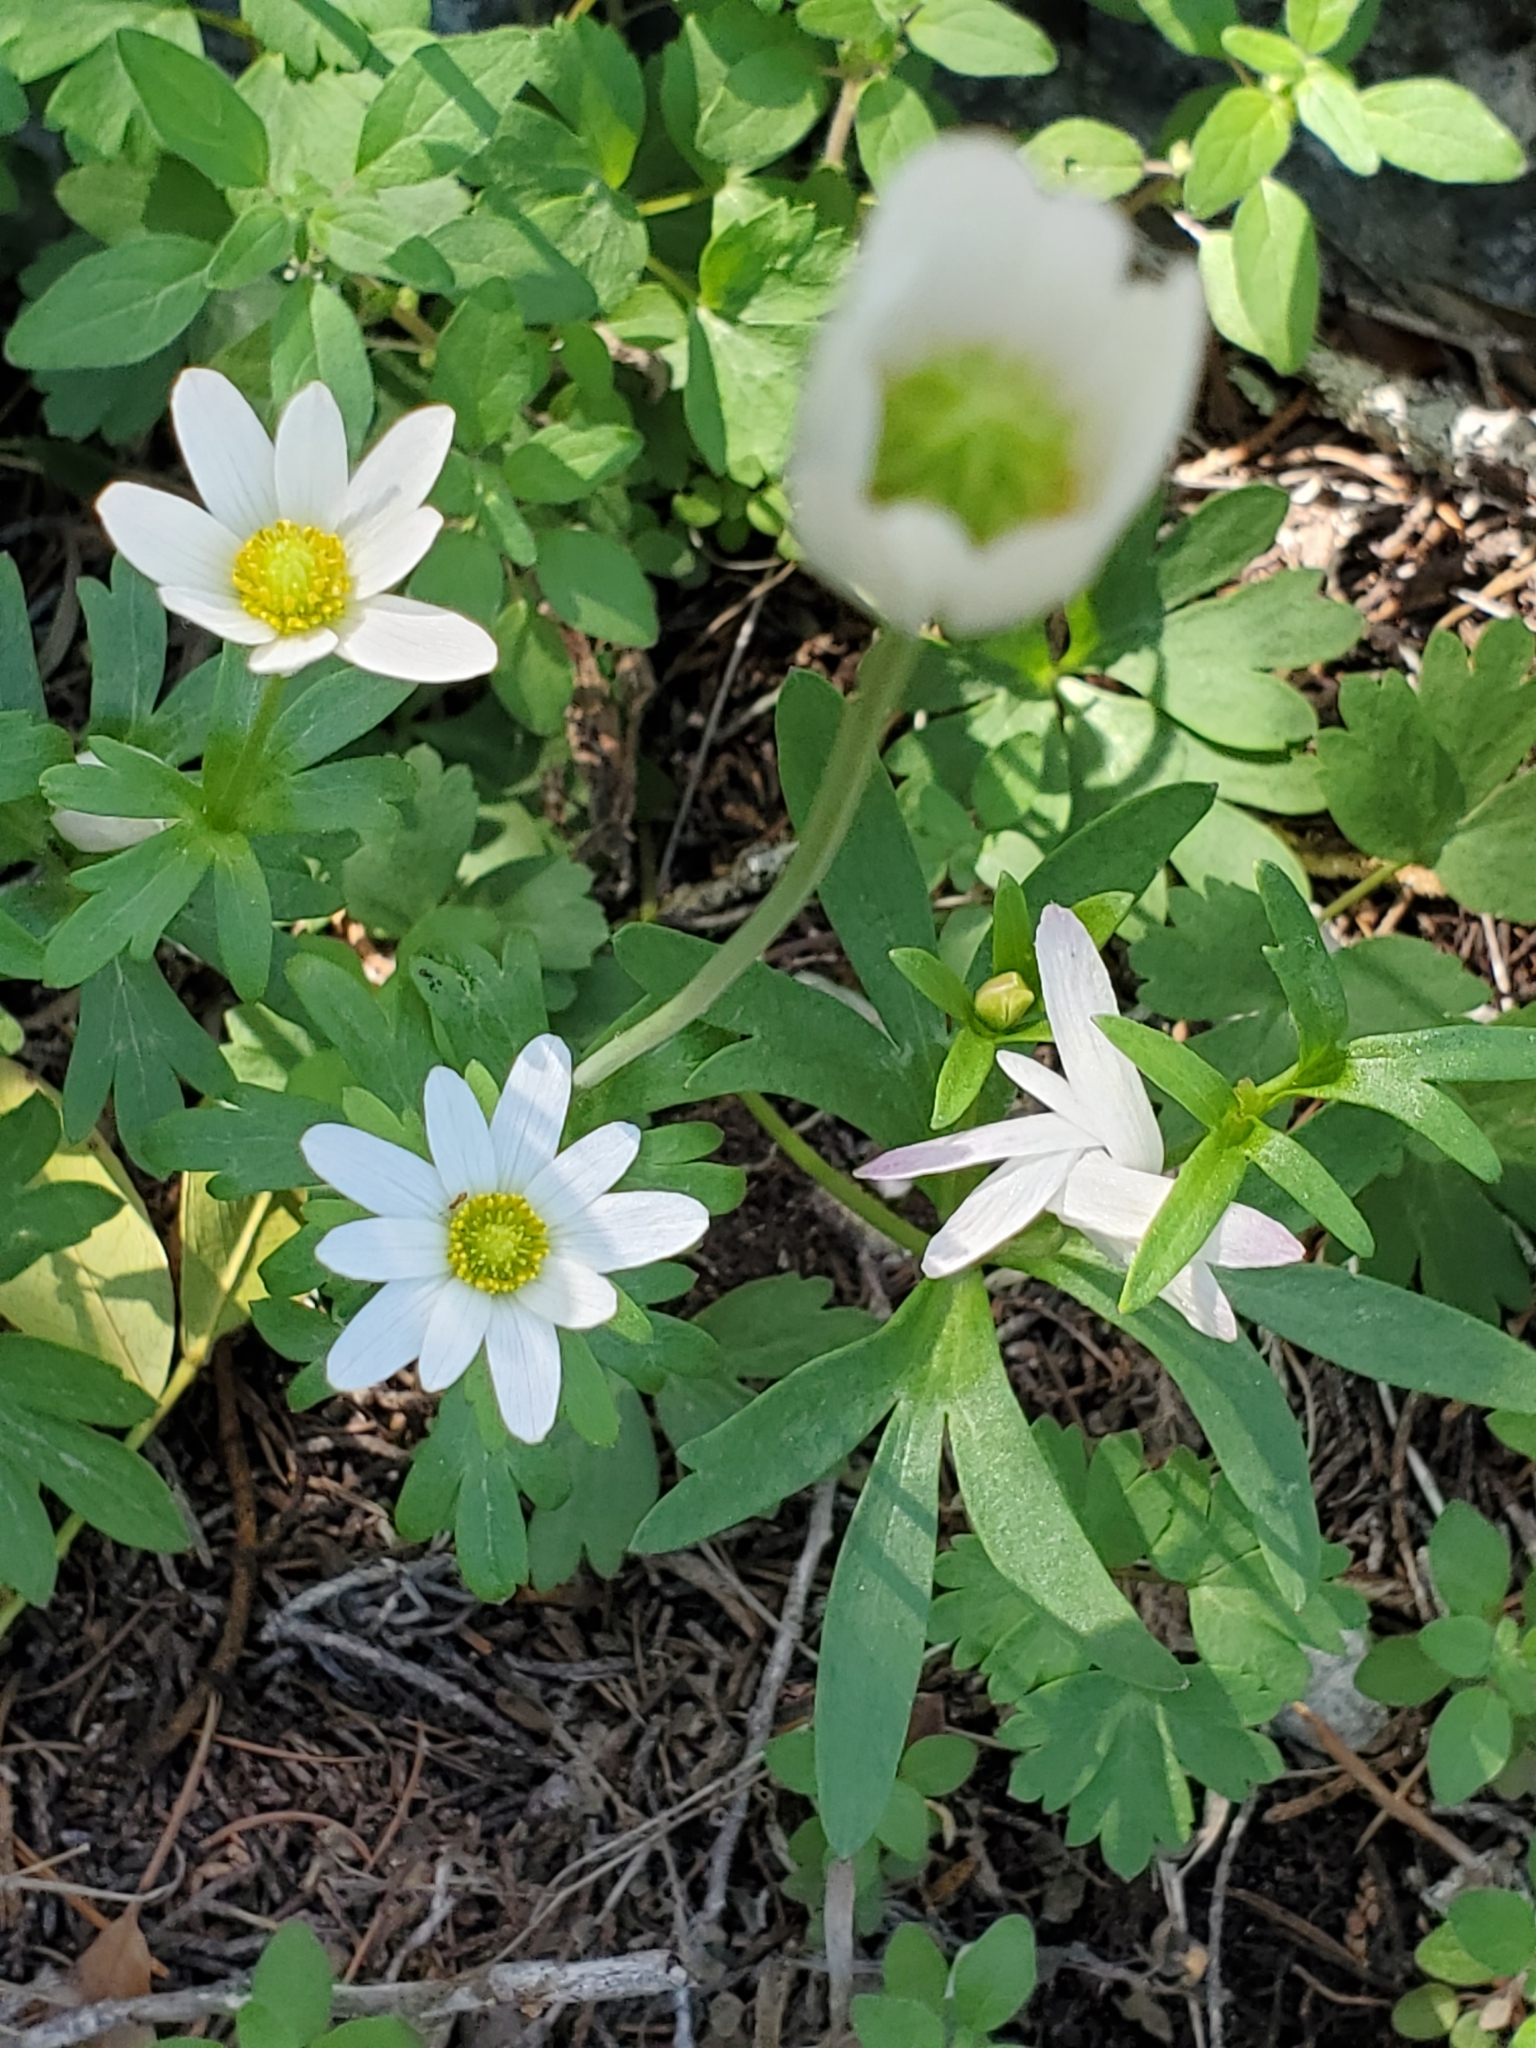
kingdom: Plantae
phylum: Tracheophyta
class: Magnoliopsida
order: Ranunculales
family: Ranunculaceae
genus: Anemone
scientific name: Anemone edwardsiana
